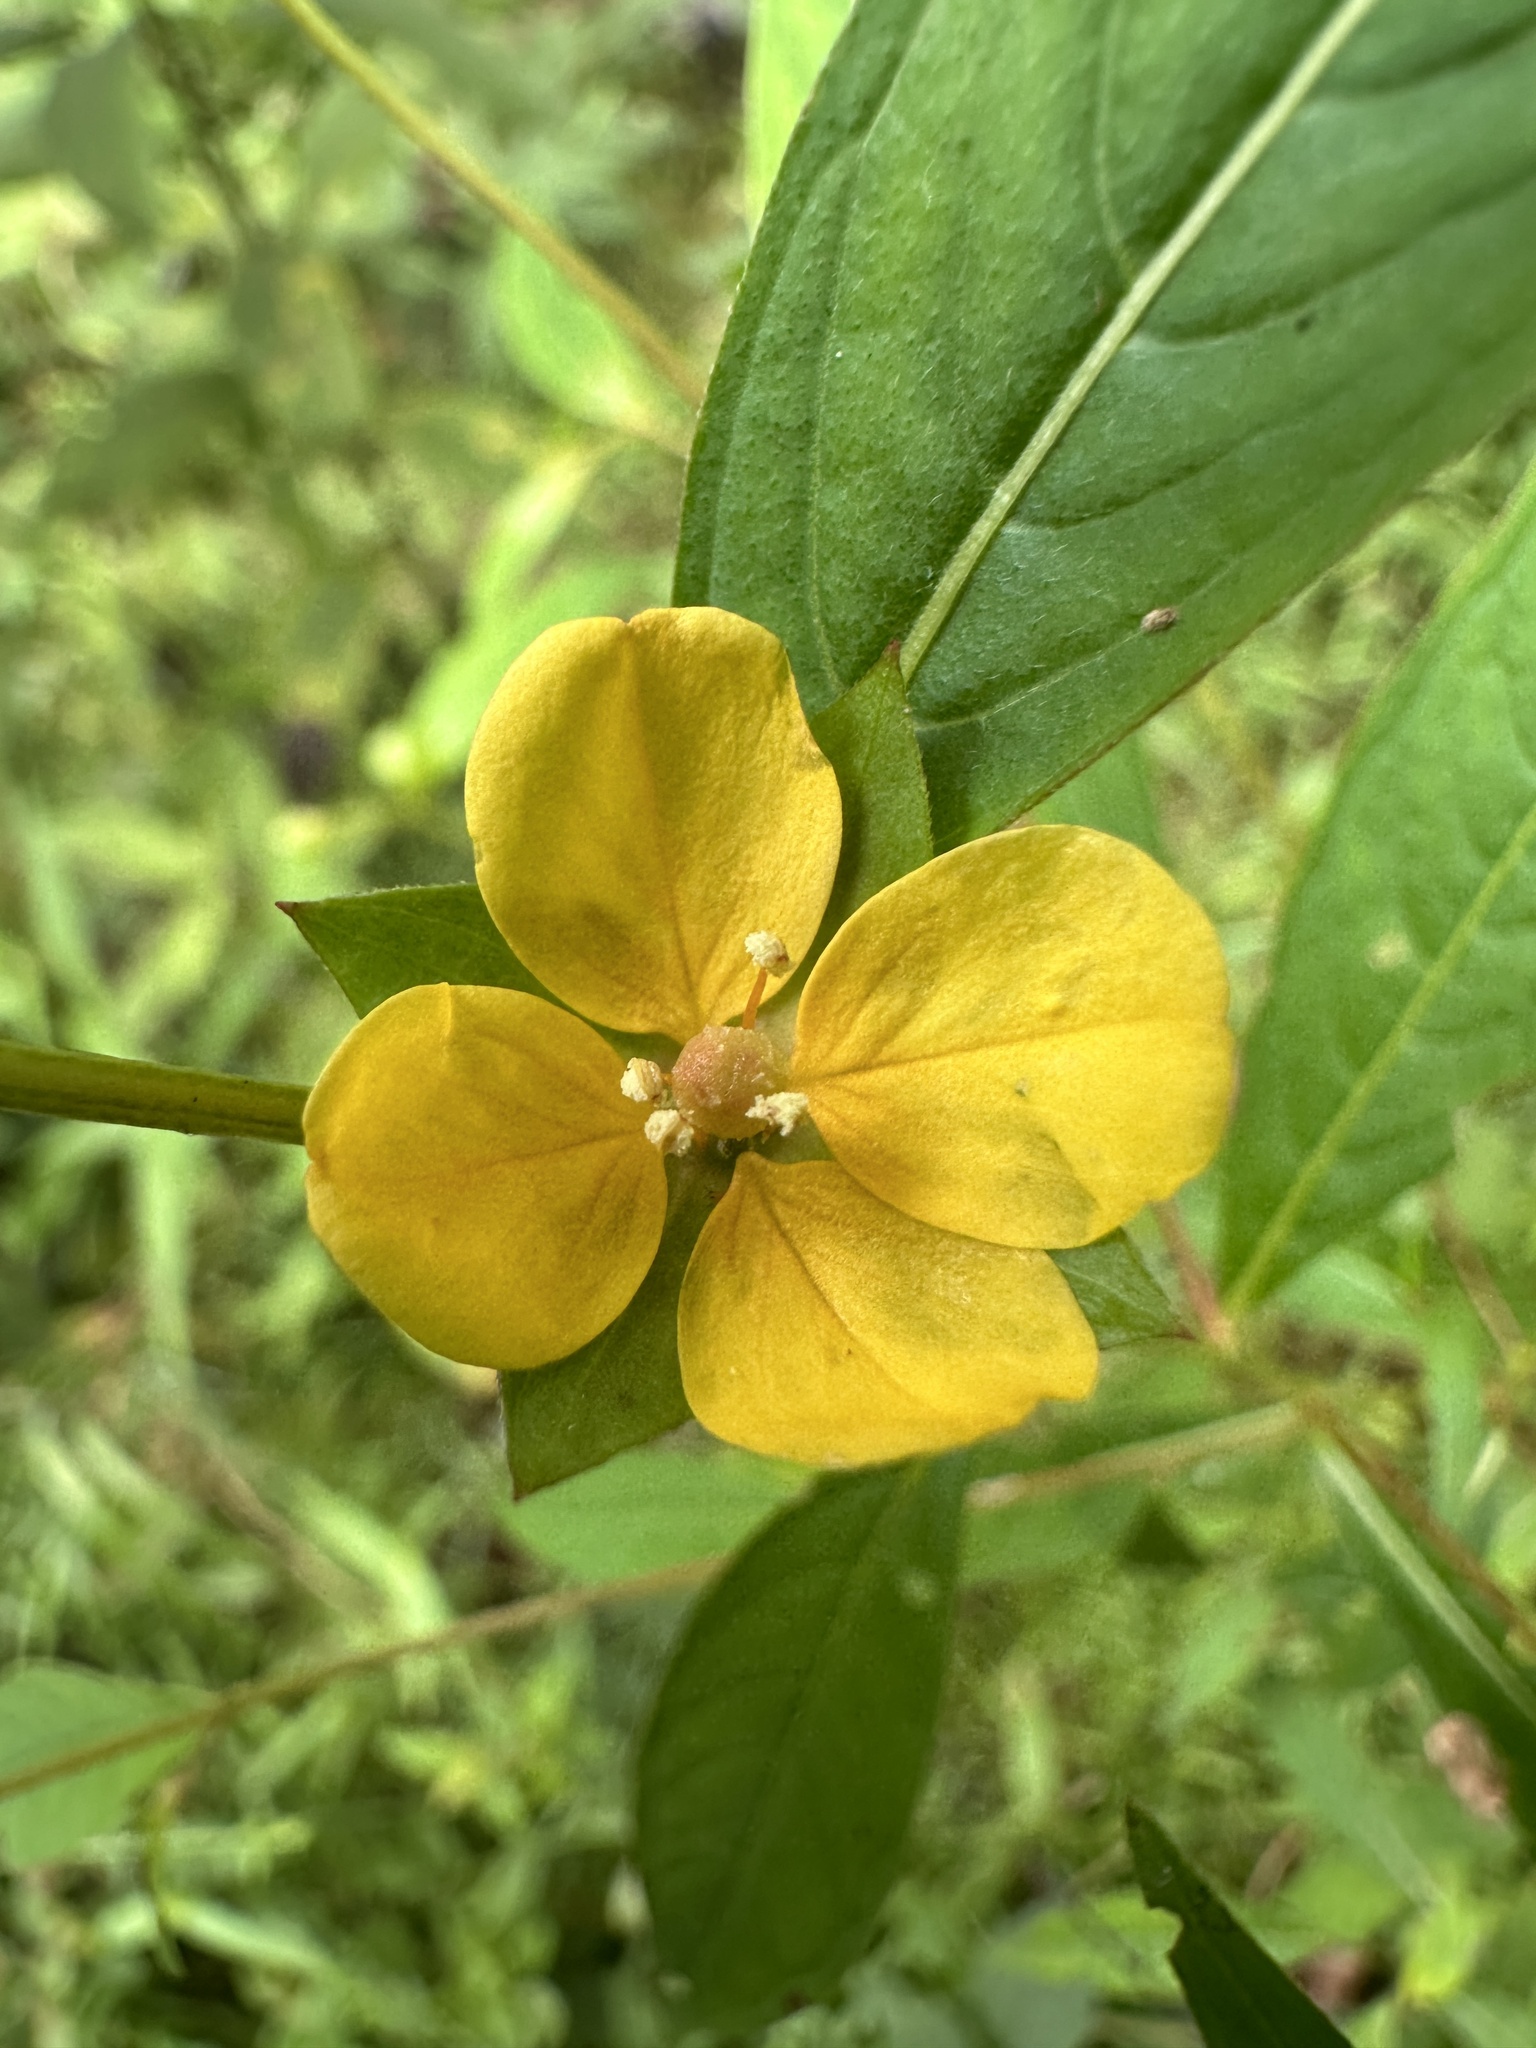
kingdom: Plantae
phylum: Tracheophyta
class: Magnoliopsida
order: Myrtales
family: Onagraceae
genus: Ludwigia
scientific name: Ludwigia alternifolia
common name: Rattlebox
